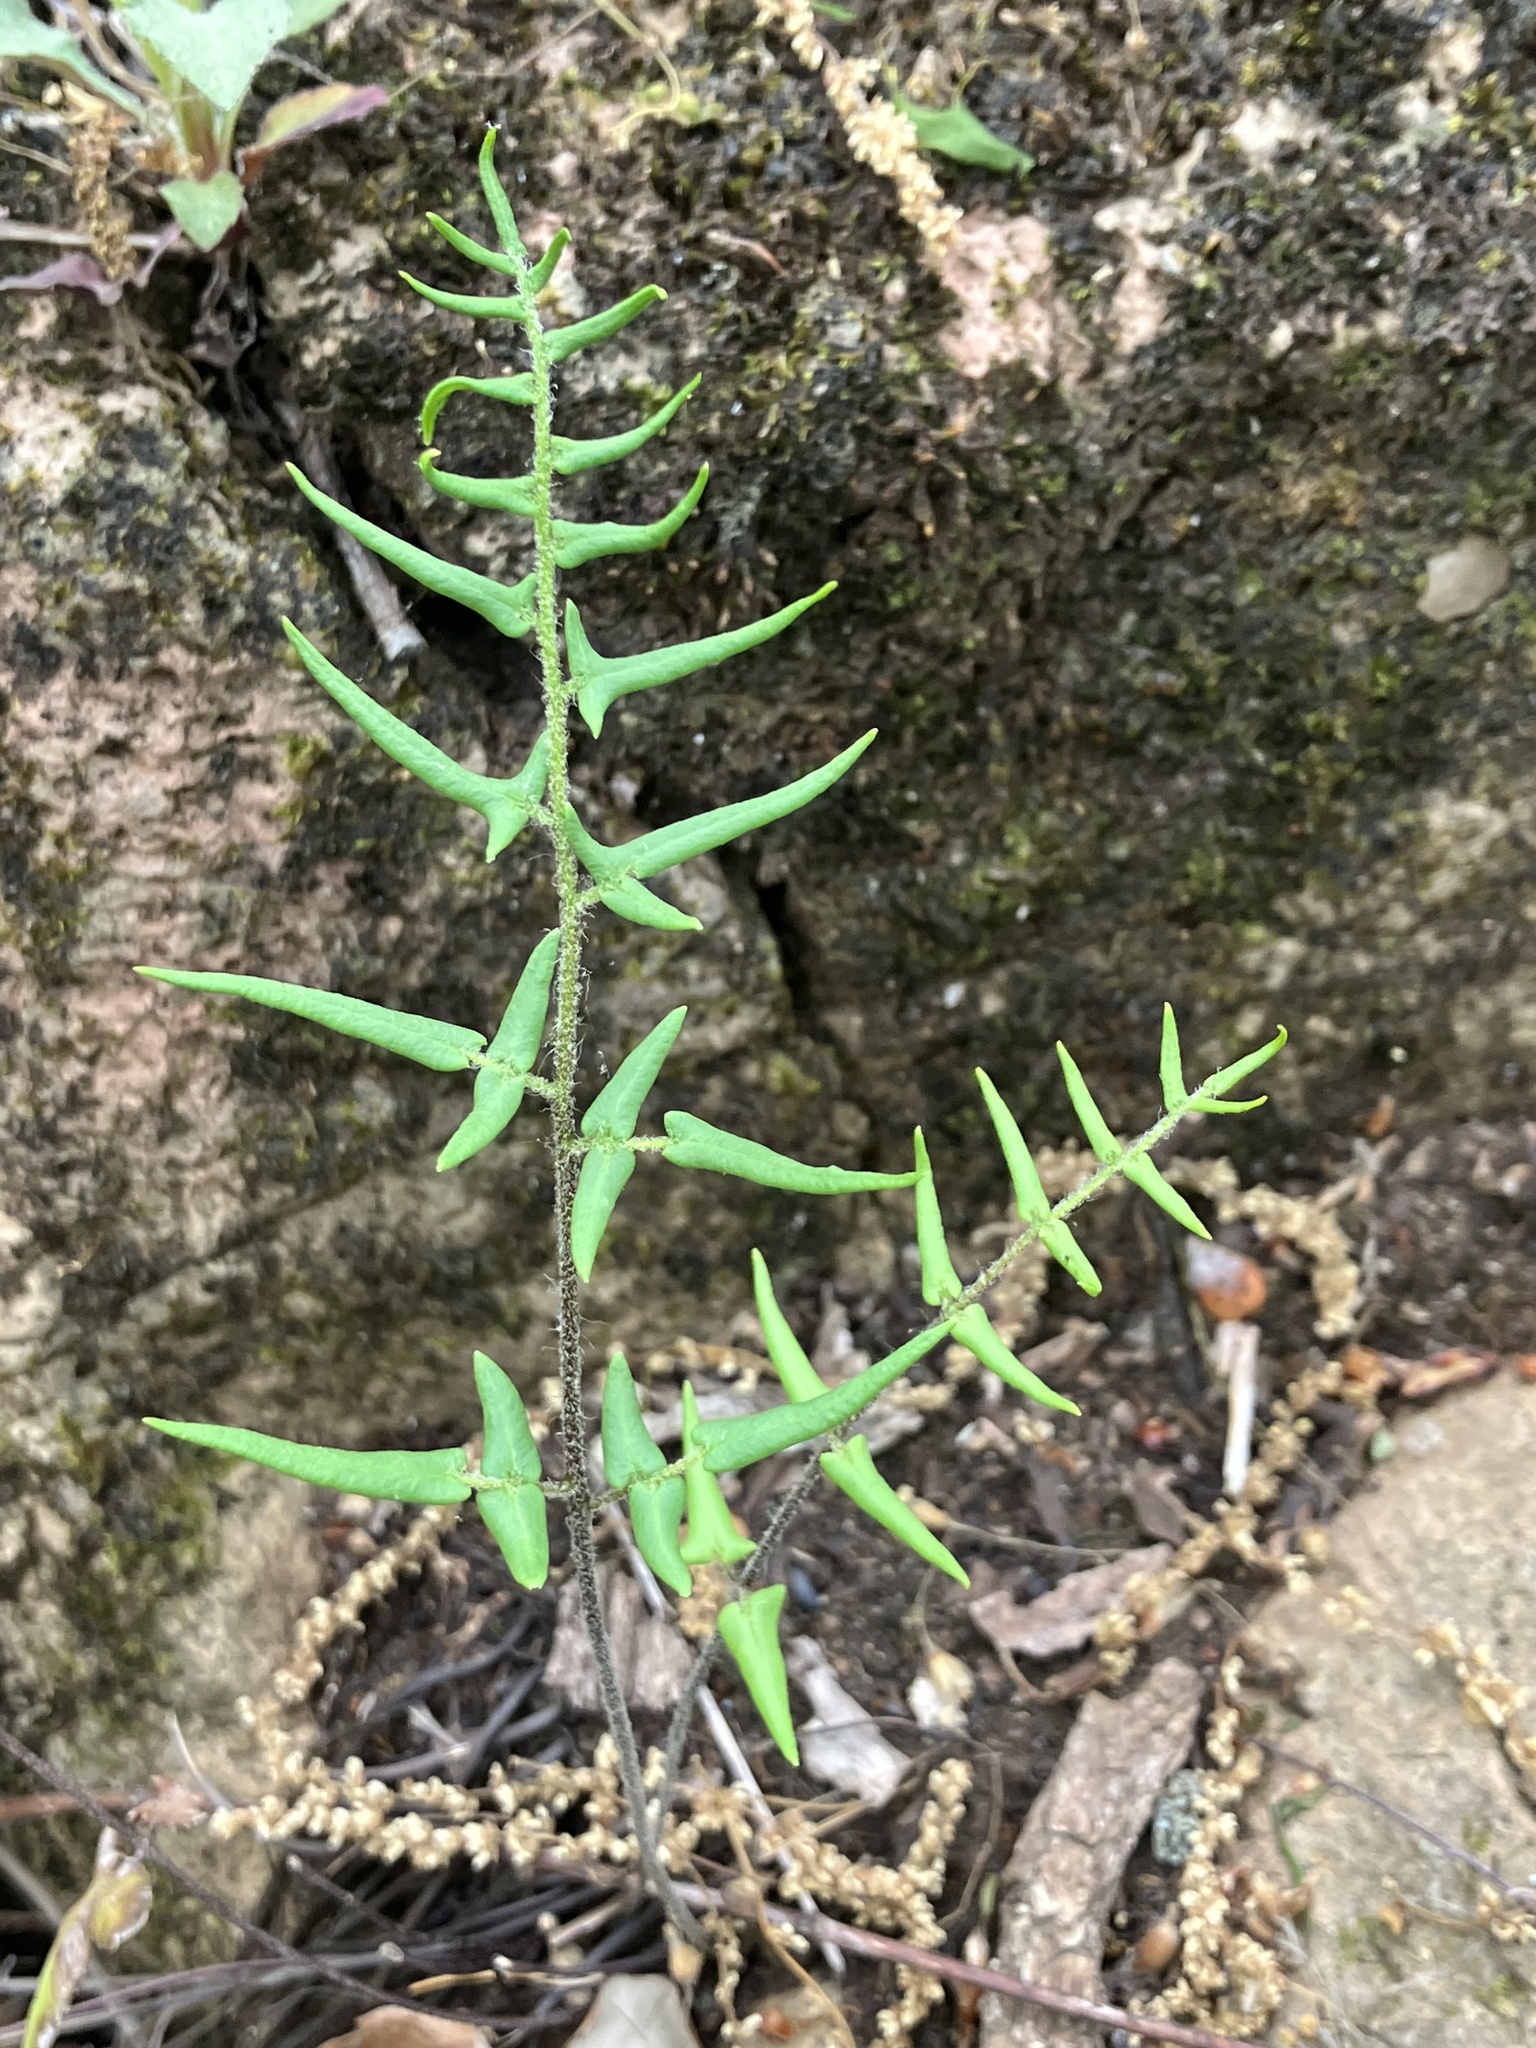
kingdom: Plantae
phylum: Tracheophyta
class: Polypodiopsida
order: Polypodiales
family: Pteridaceae
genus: Pellaea
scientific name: Pellaea atropurpurea
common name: Hairy cliffbrake
